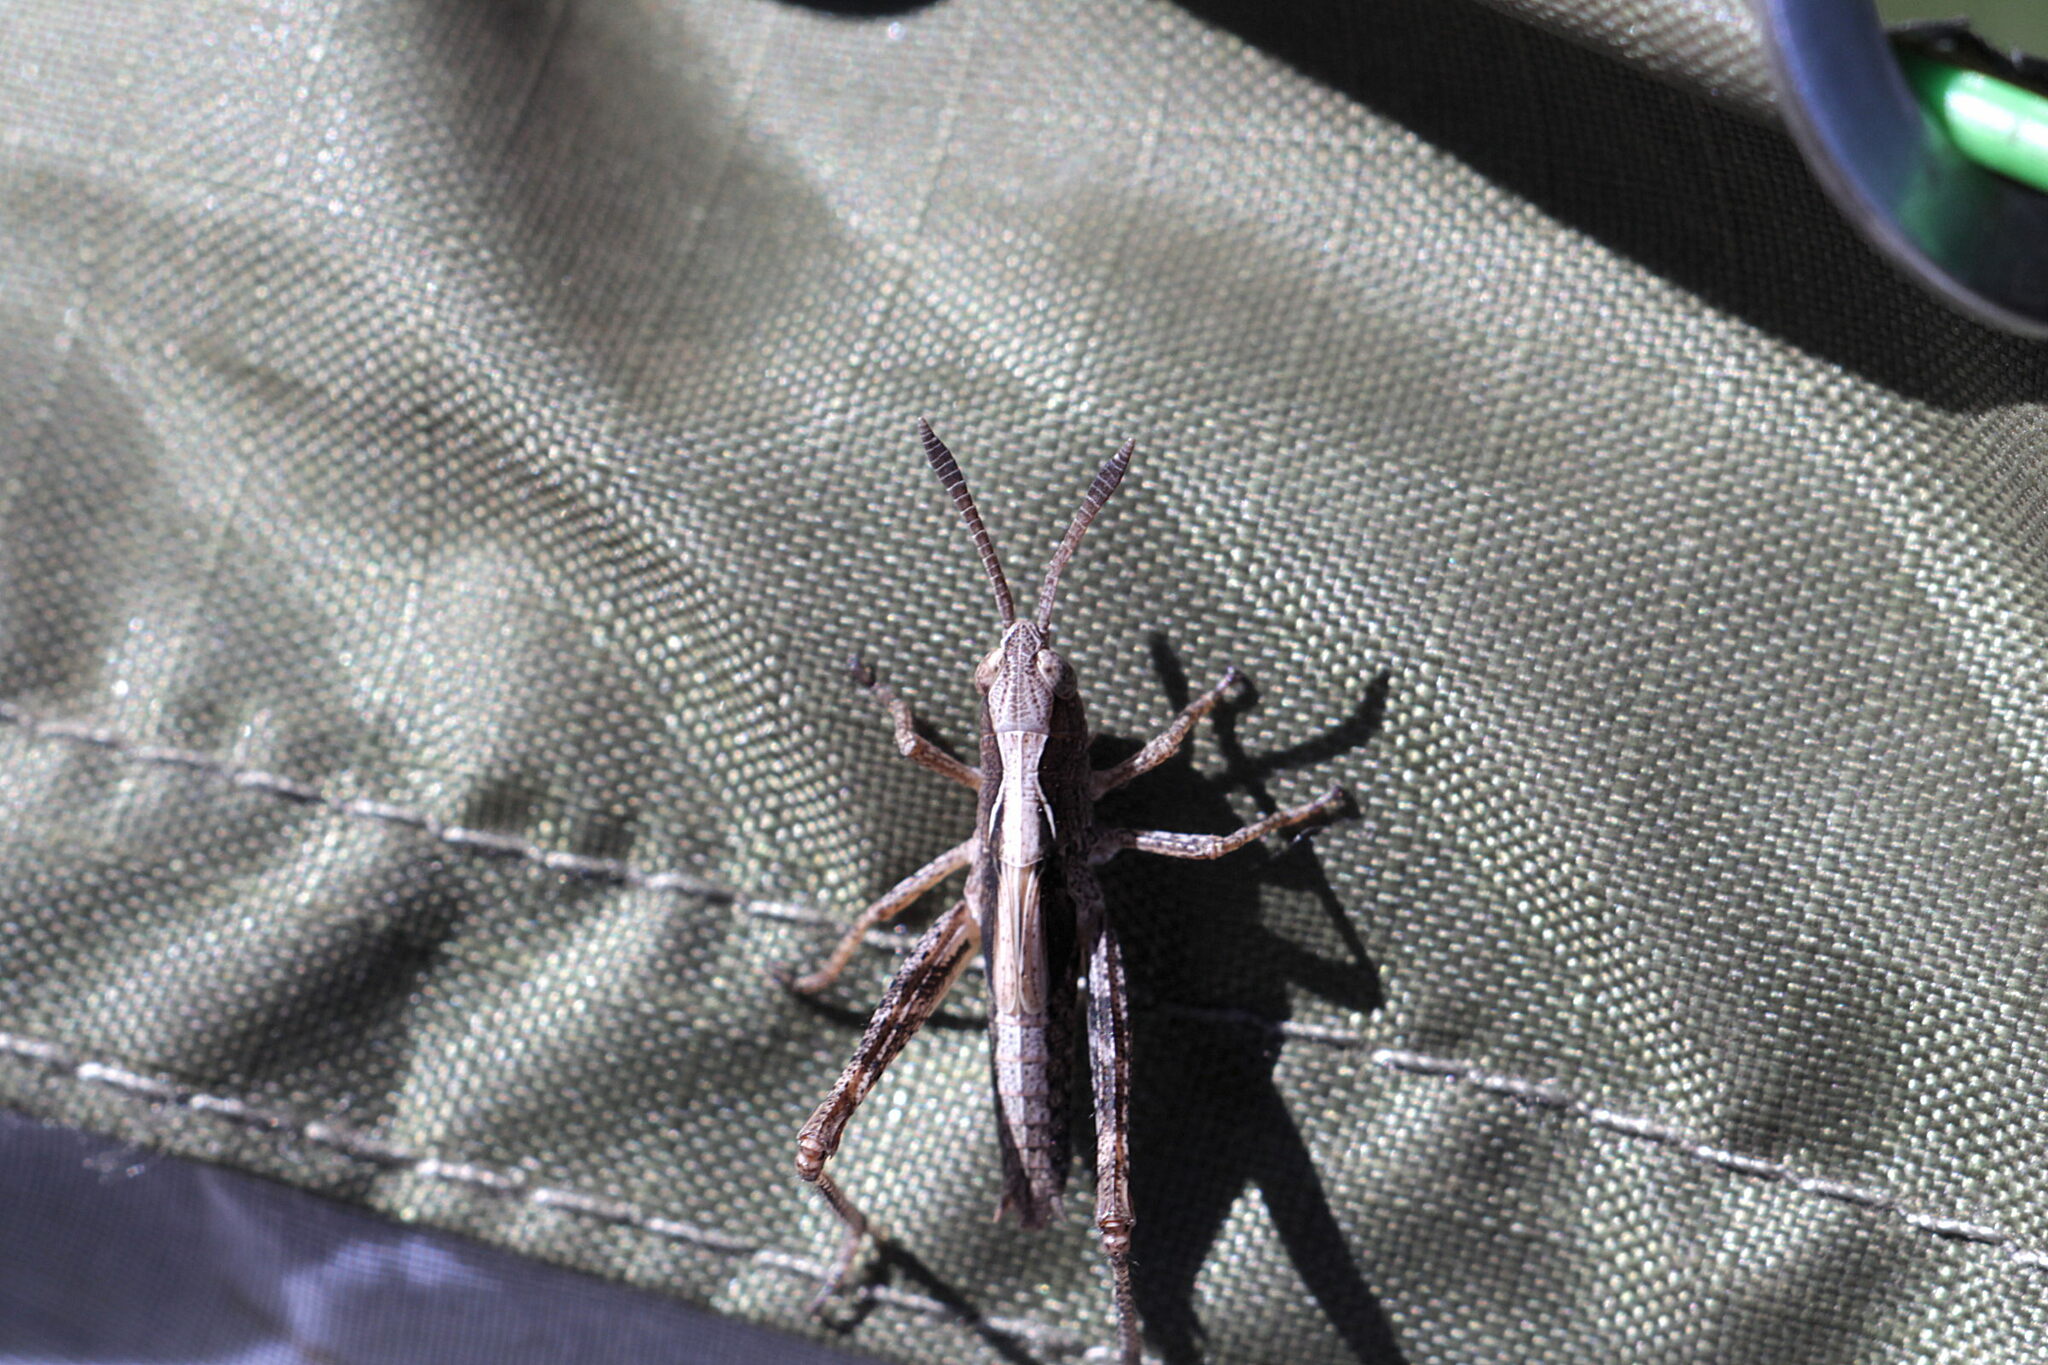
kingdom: Animalia
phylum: Arthropoda
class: Insecta
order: Orthoptera
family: Acrididae
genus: Gomphocerippus
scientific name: Gomphocerippus rufus
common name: Rufous grasshopper
